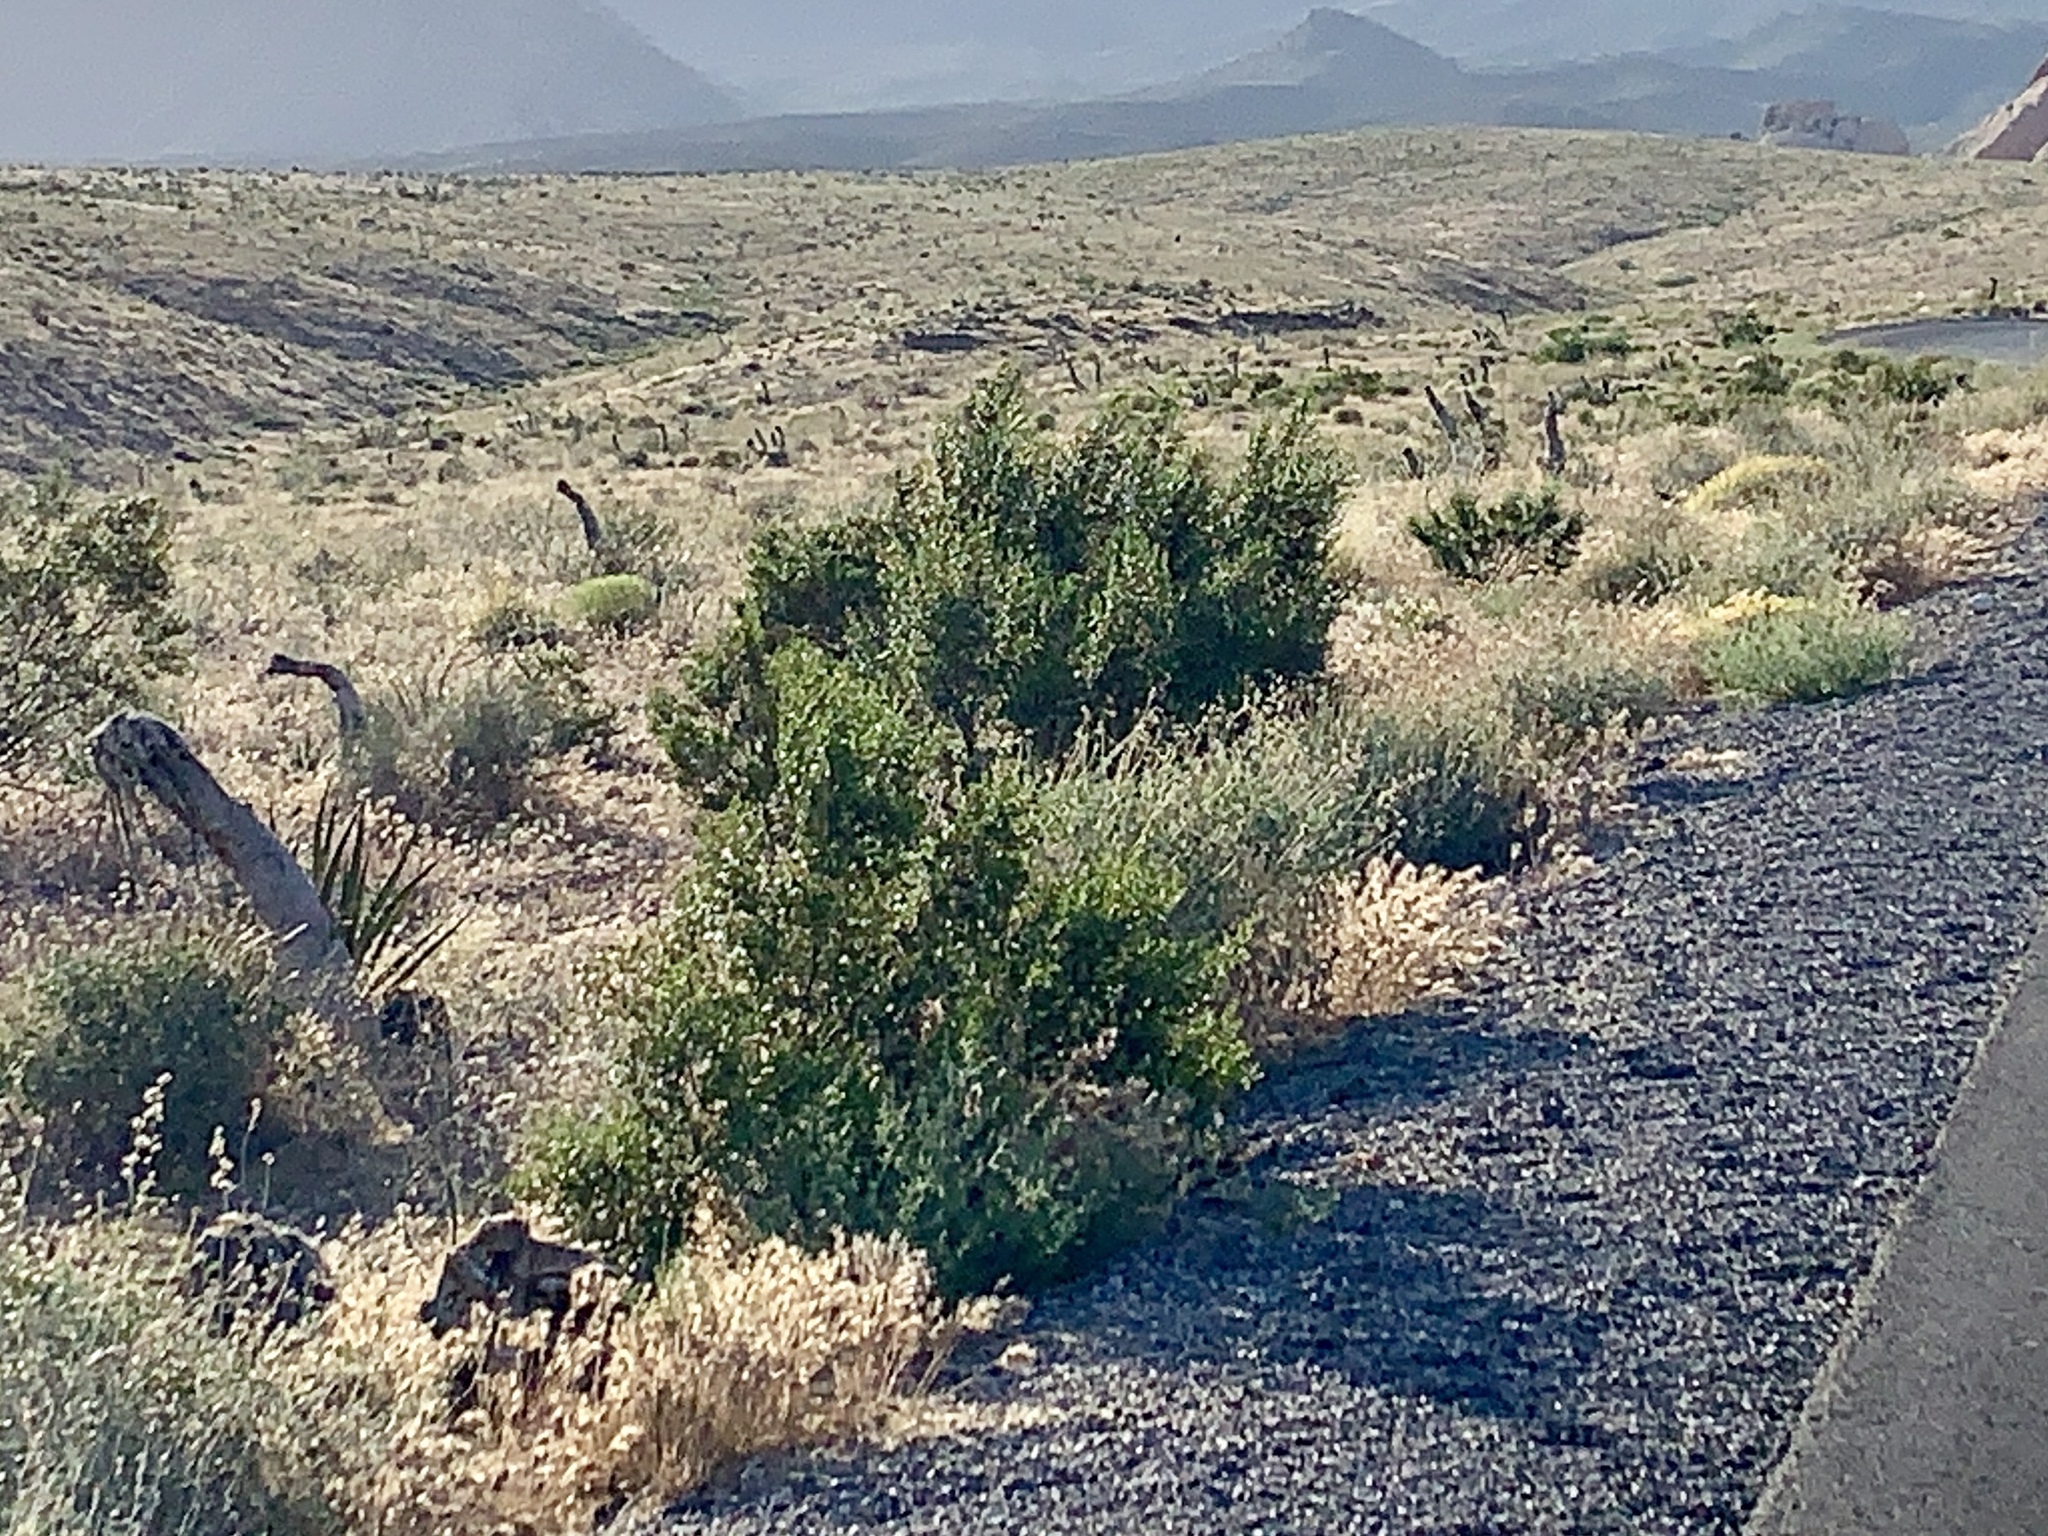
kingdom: Plantae
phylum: Tracheophyta
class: Magnoliopsida
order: Zygophyllales
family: Zygophyllaceae
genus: Larrea
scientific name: Larrea tridentata
